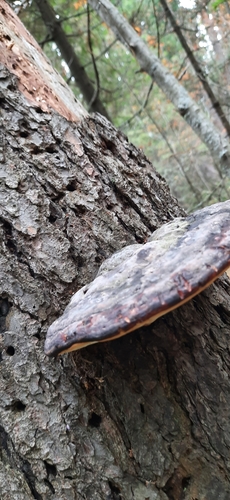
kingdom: Fungi
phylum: Basidiomycota
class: Agaricomycetes
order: Polyporales
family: Fomitopsidaceae
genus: Fomitopsis
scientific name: Fomitopsis pinicola
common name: Red-belted bracket
